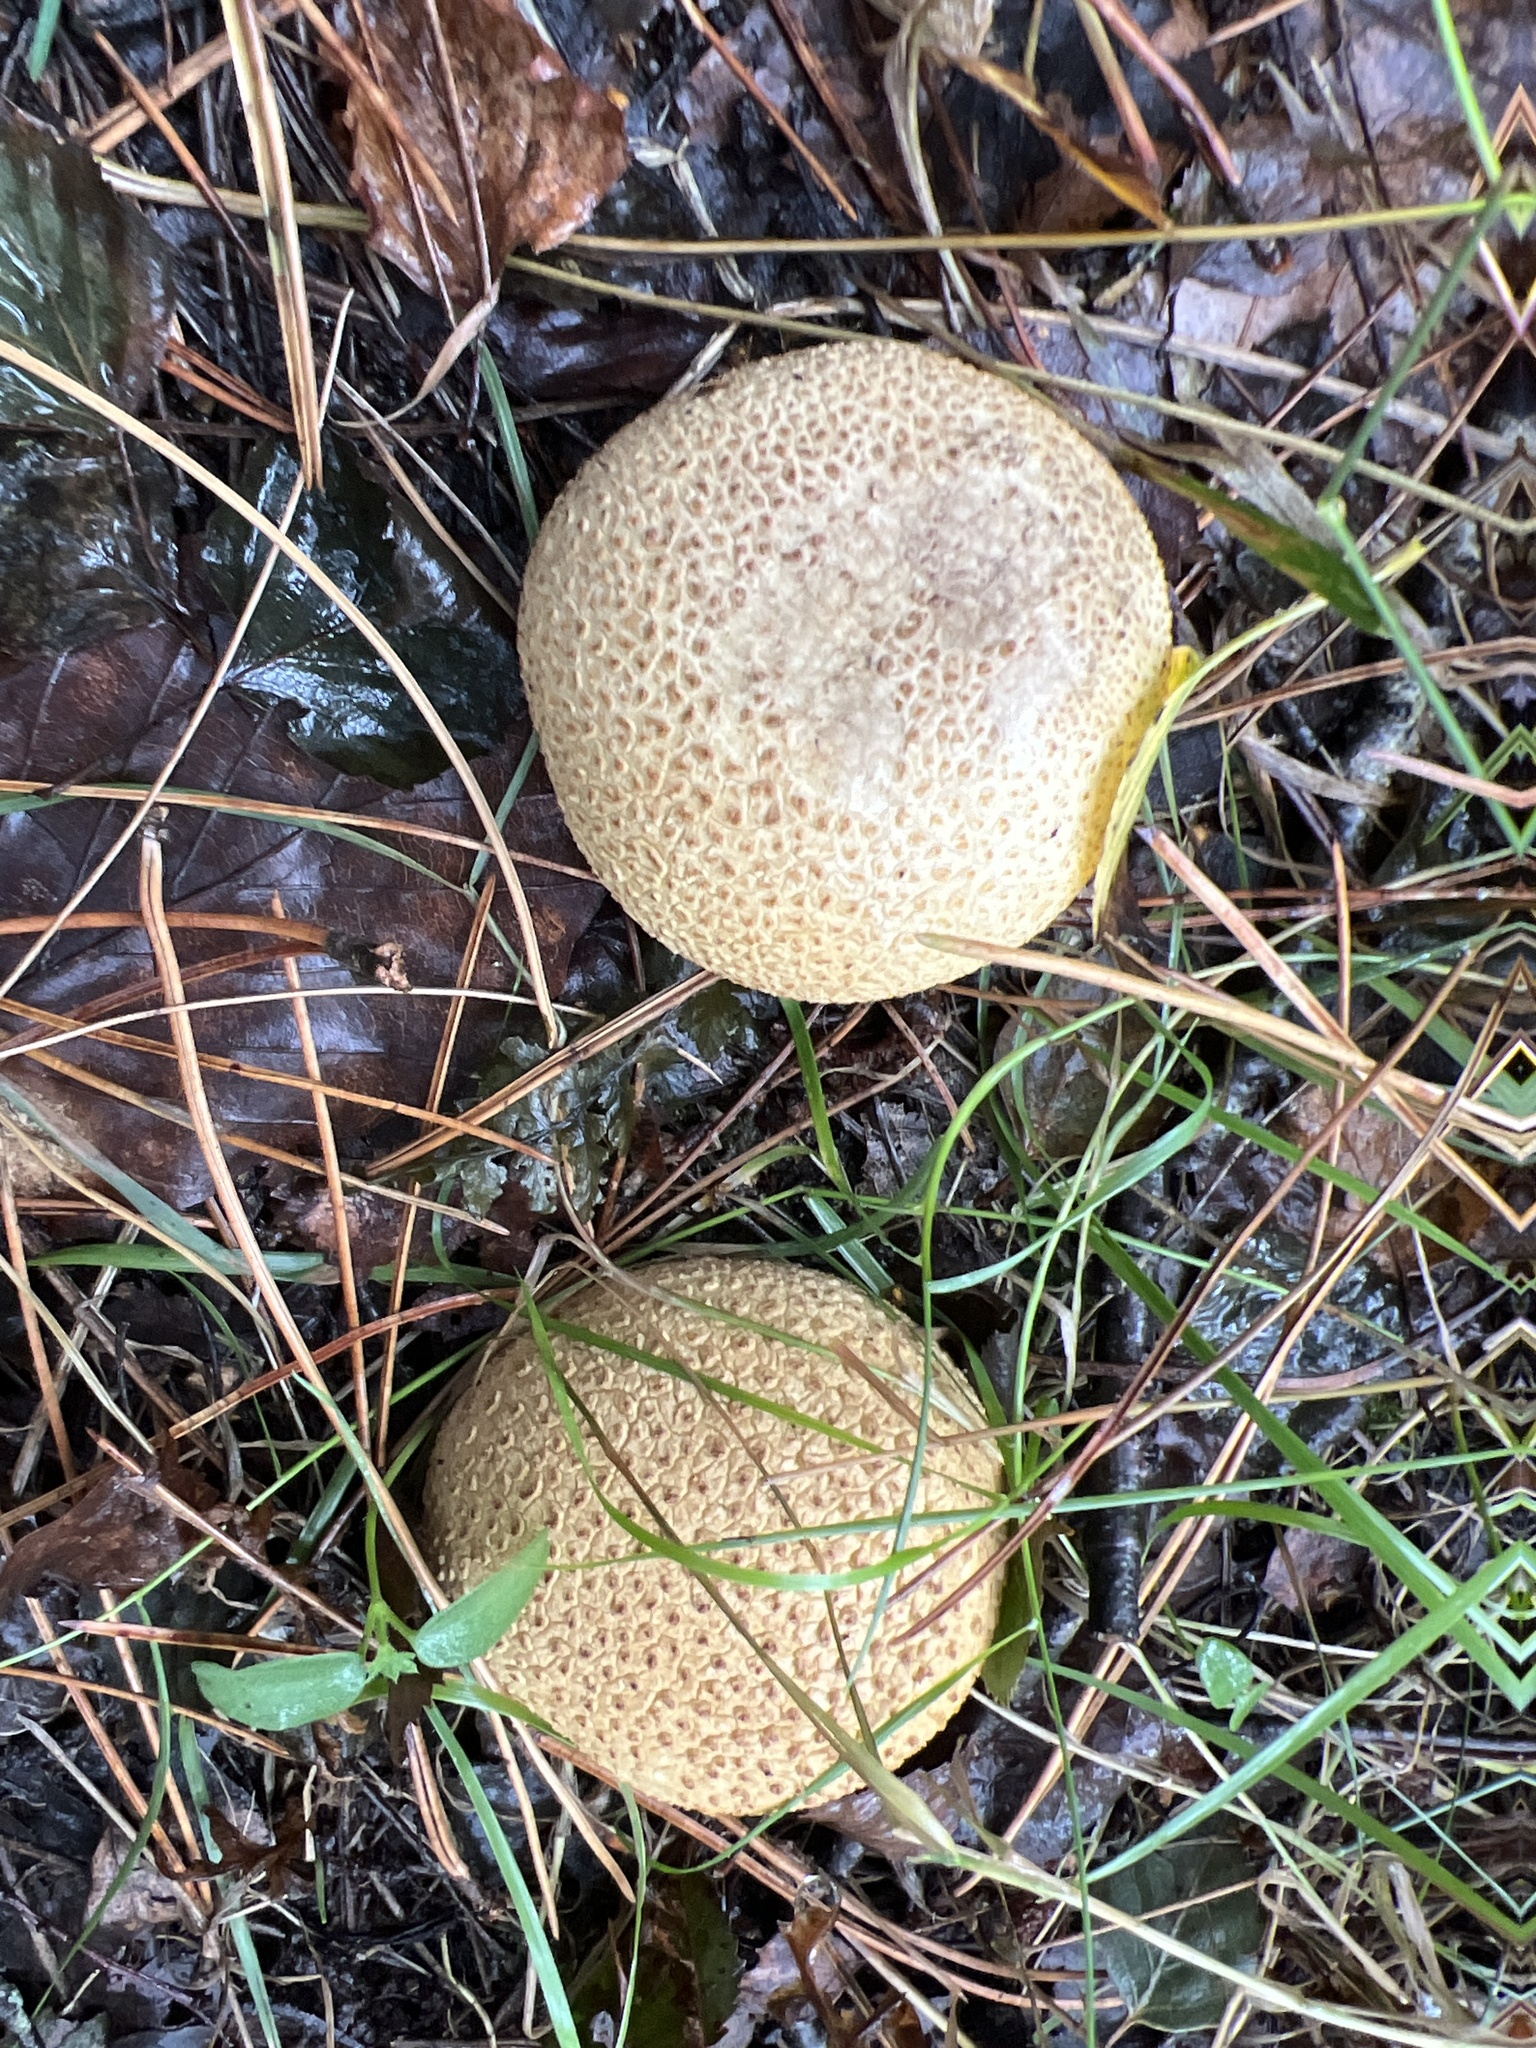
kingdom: Fungi
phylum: Basidiomycota
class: Agaricomycetes
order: Boletales
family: Sclerodermataceae
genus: Scleroderma
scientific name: Scleroderma citrinum
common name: Common earthball
